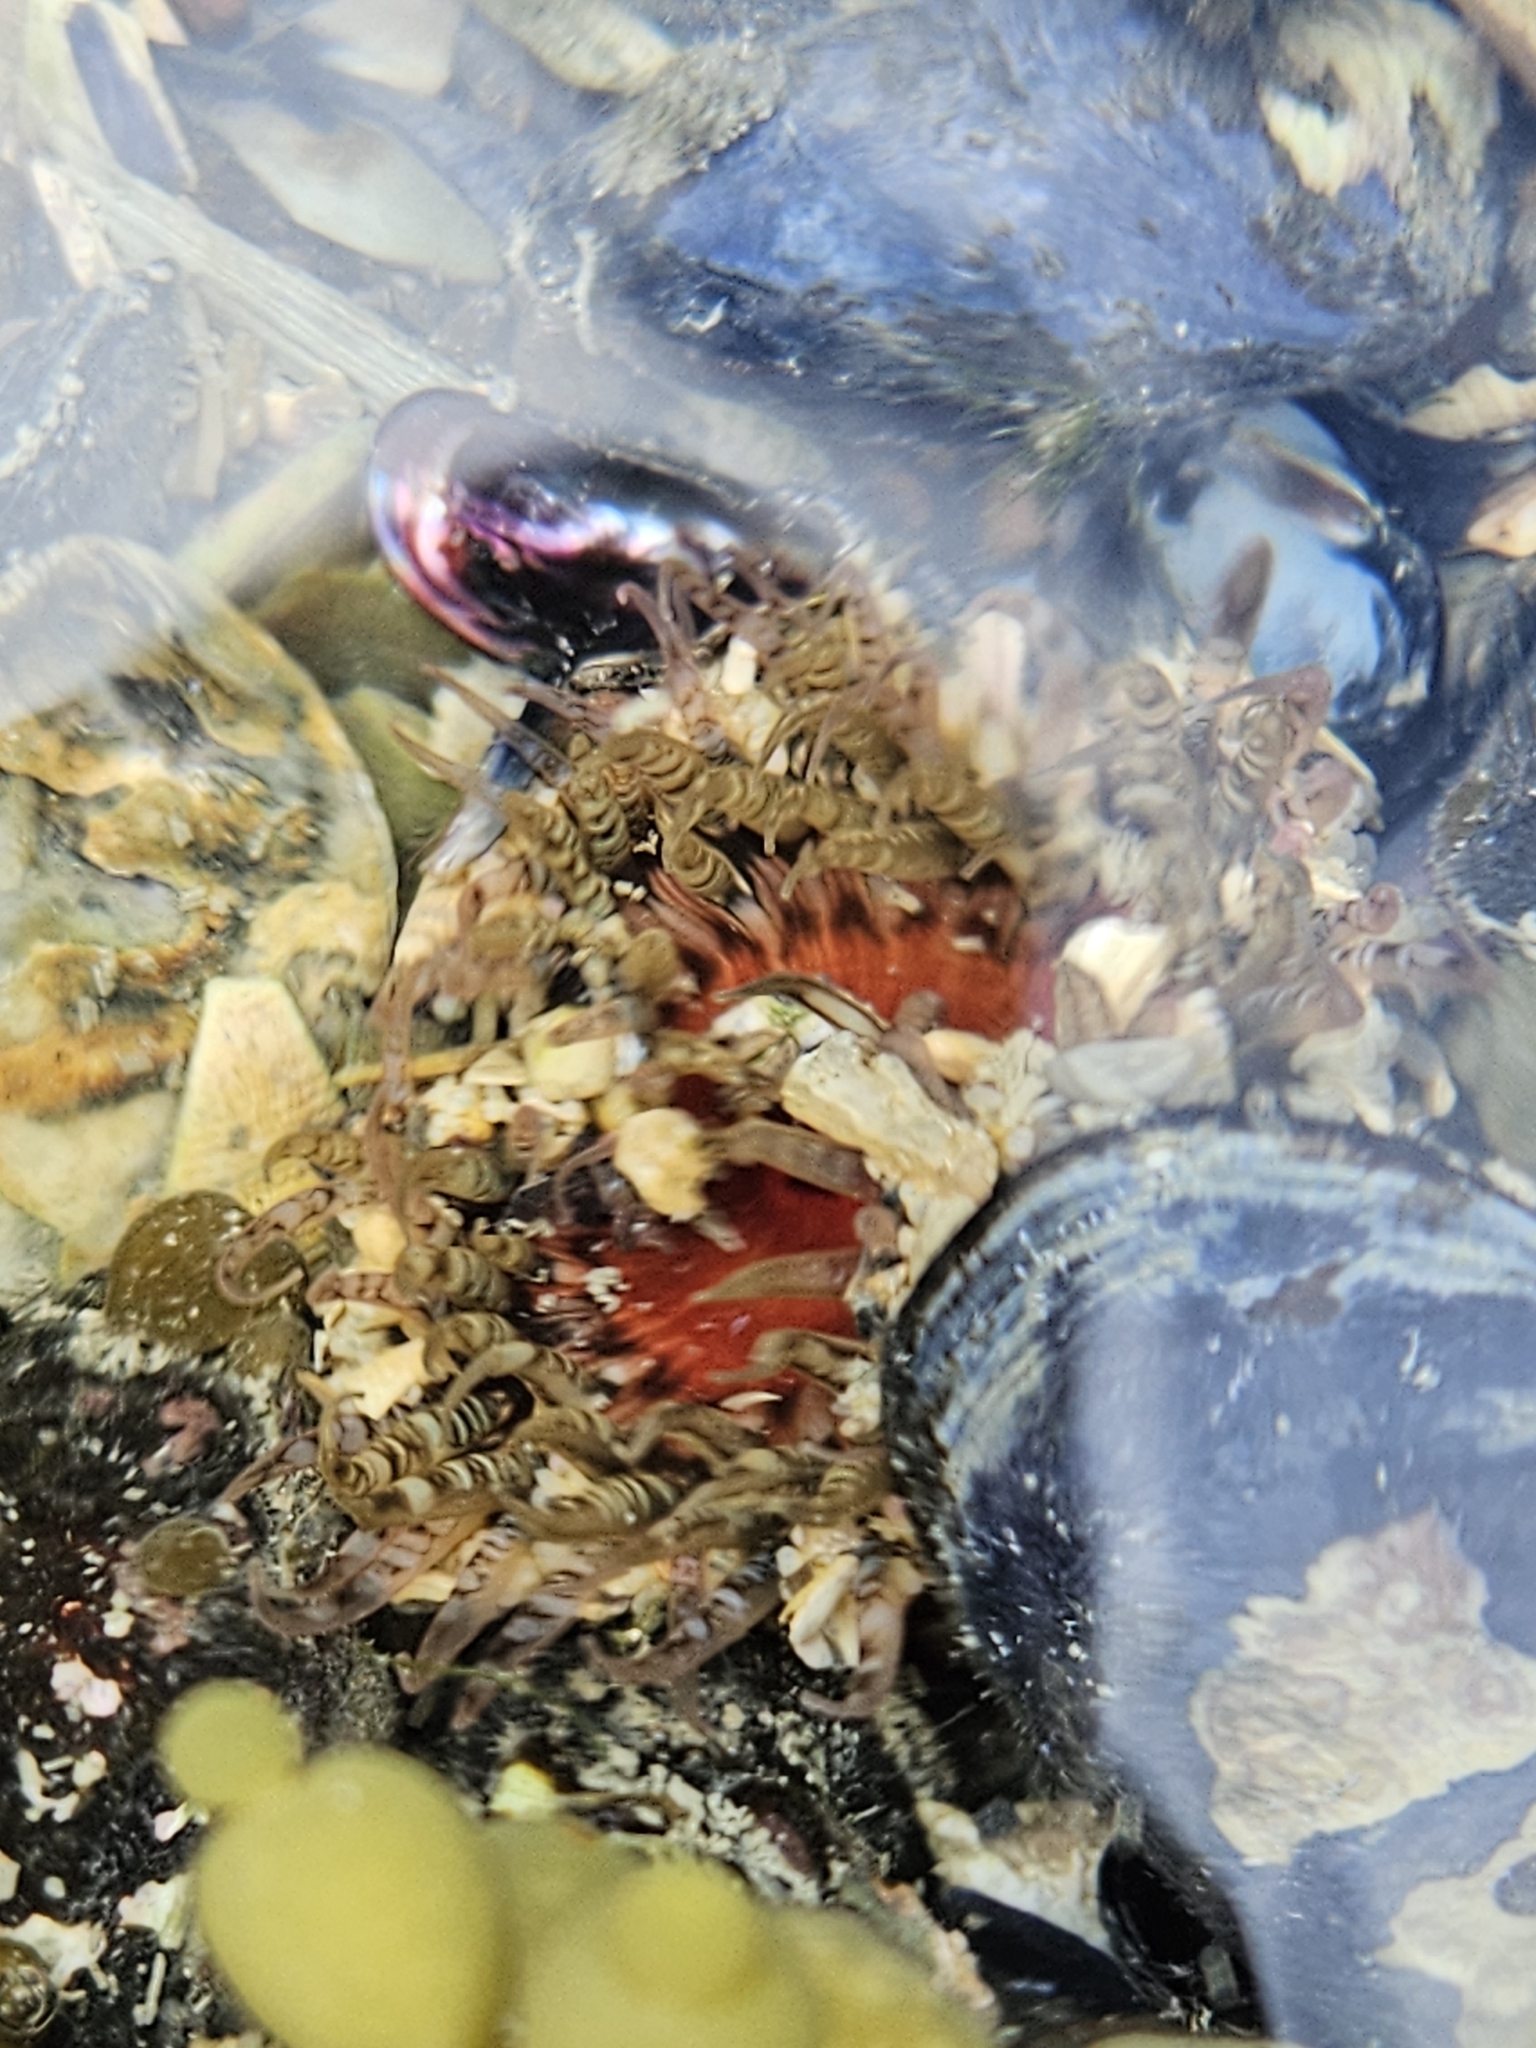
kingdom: Animalia
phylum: Cnidaria
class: Anthozoa
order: Actiniaria
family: Actiniidae
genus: Oulactis
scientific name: Oulactis muscosa
